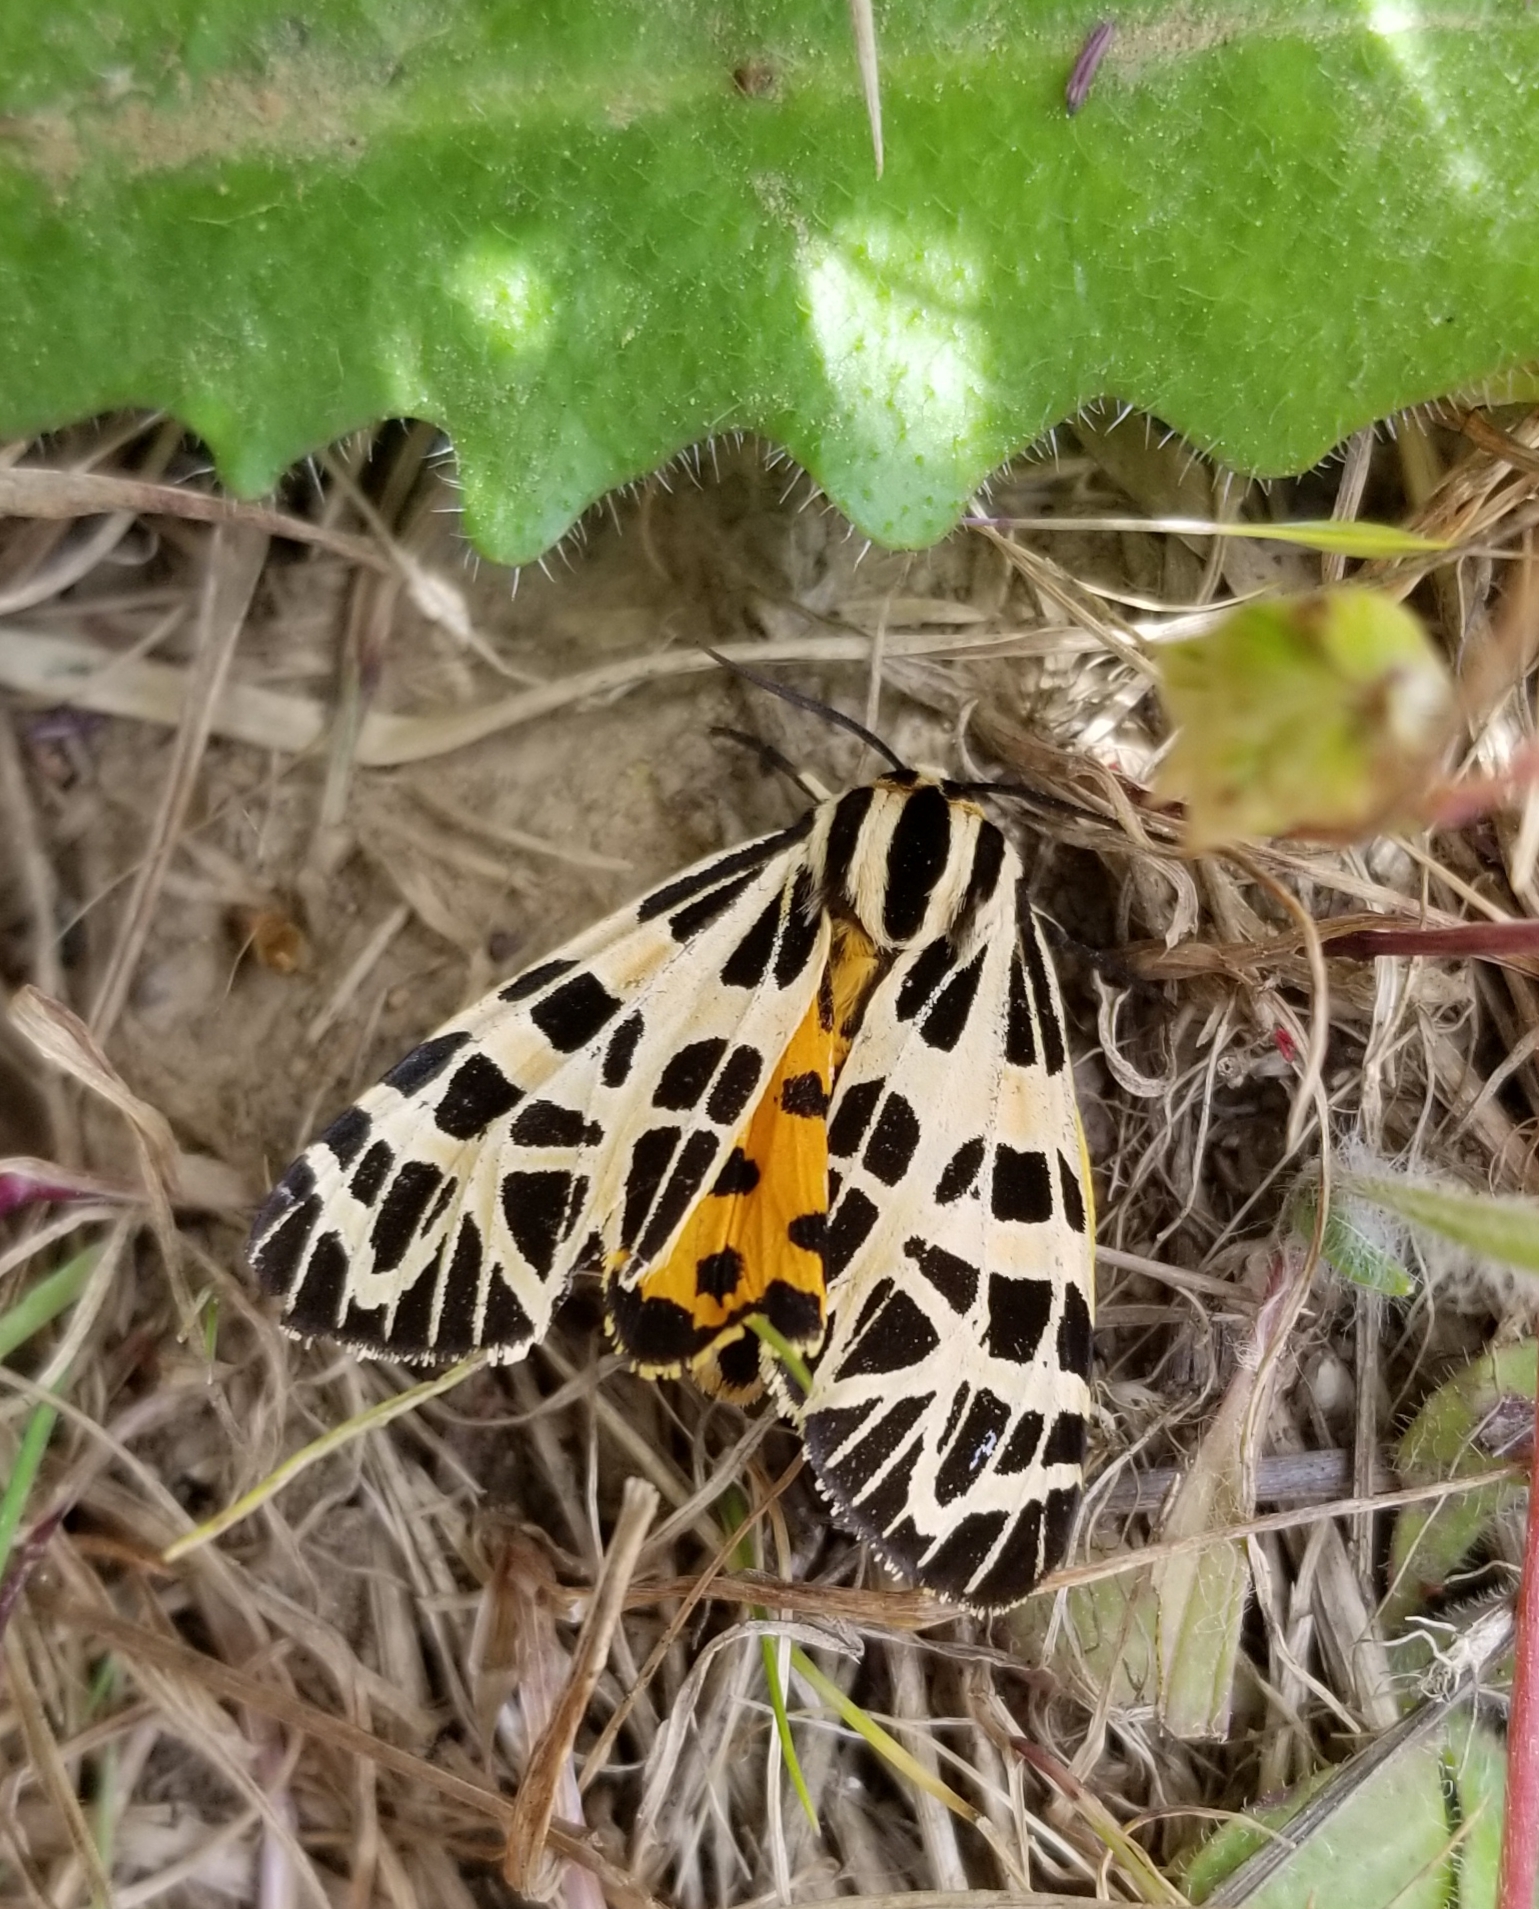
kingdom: Animalia
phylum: Arthropoda
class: Insecta
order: Lepidoptera
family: Erebidae
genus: Apantesis
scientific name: Apantesis
